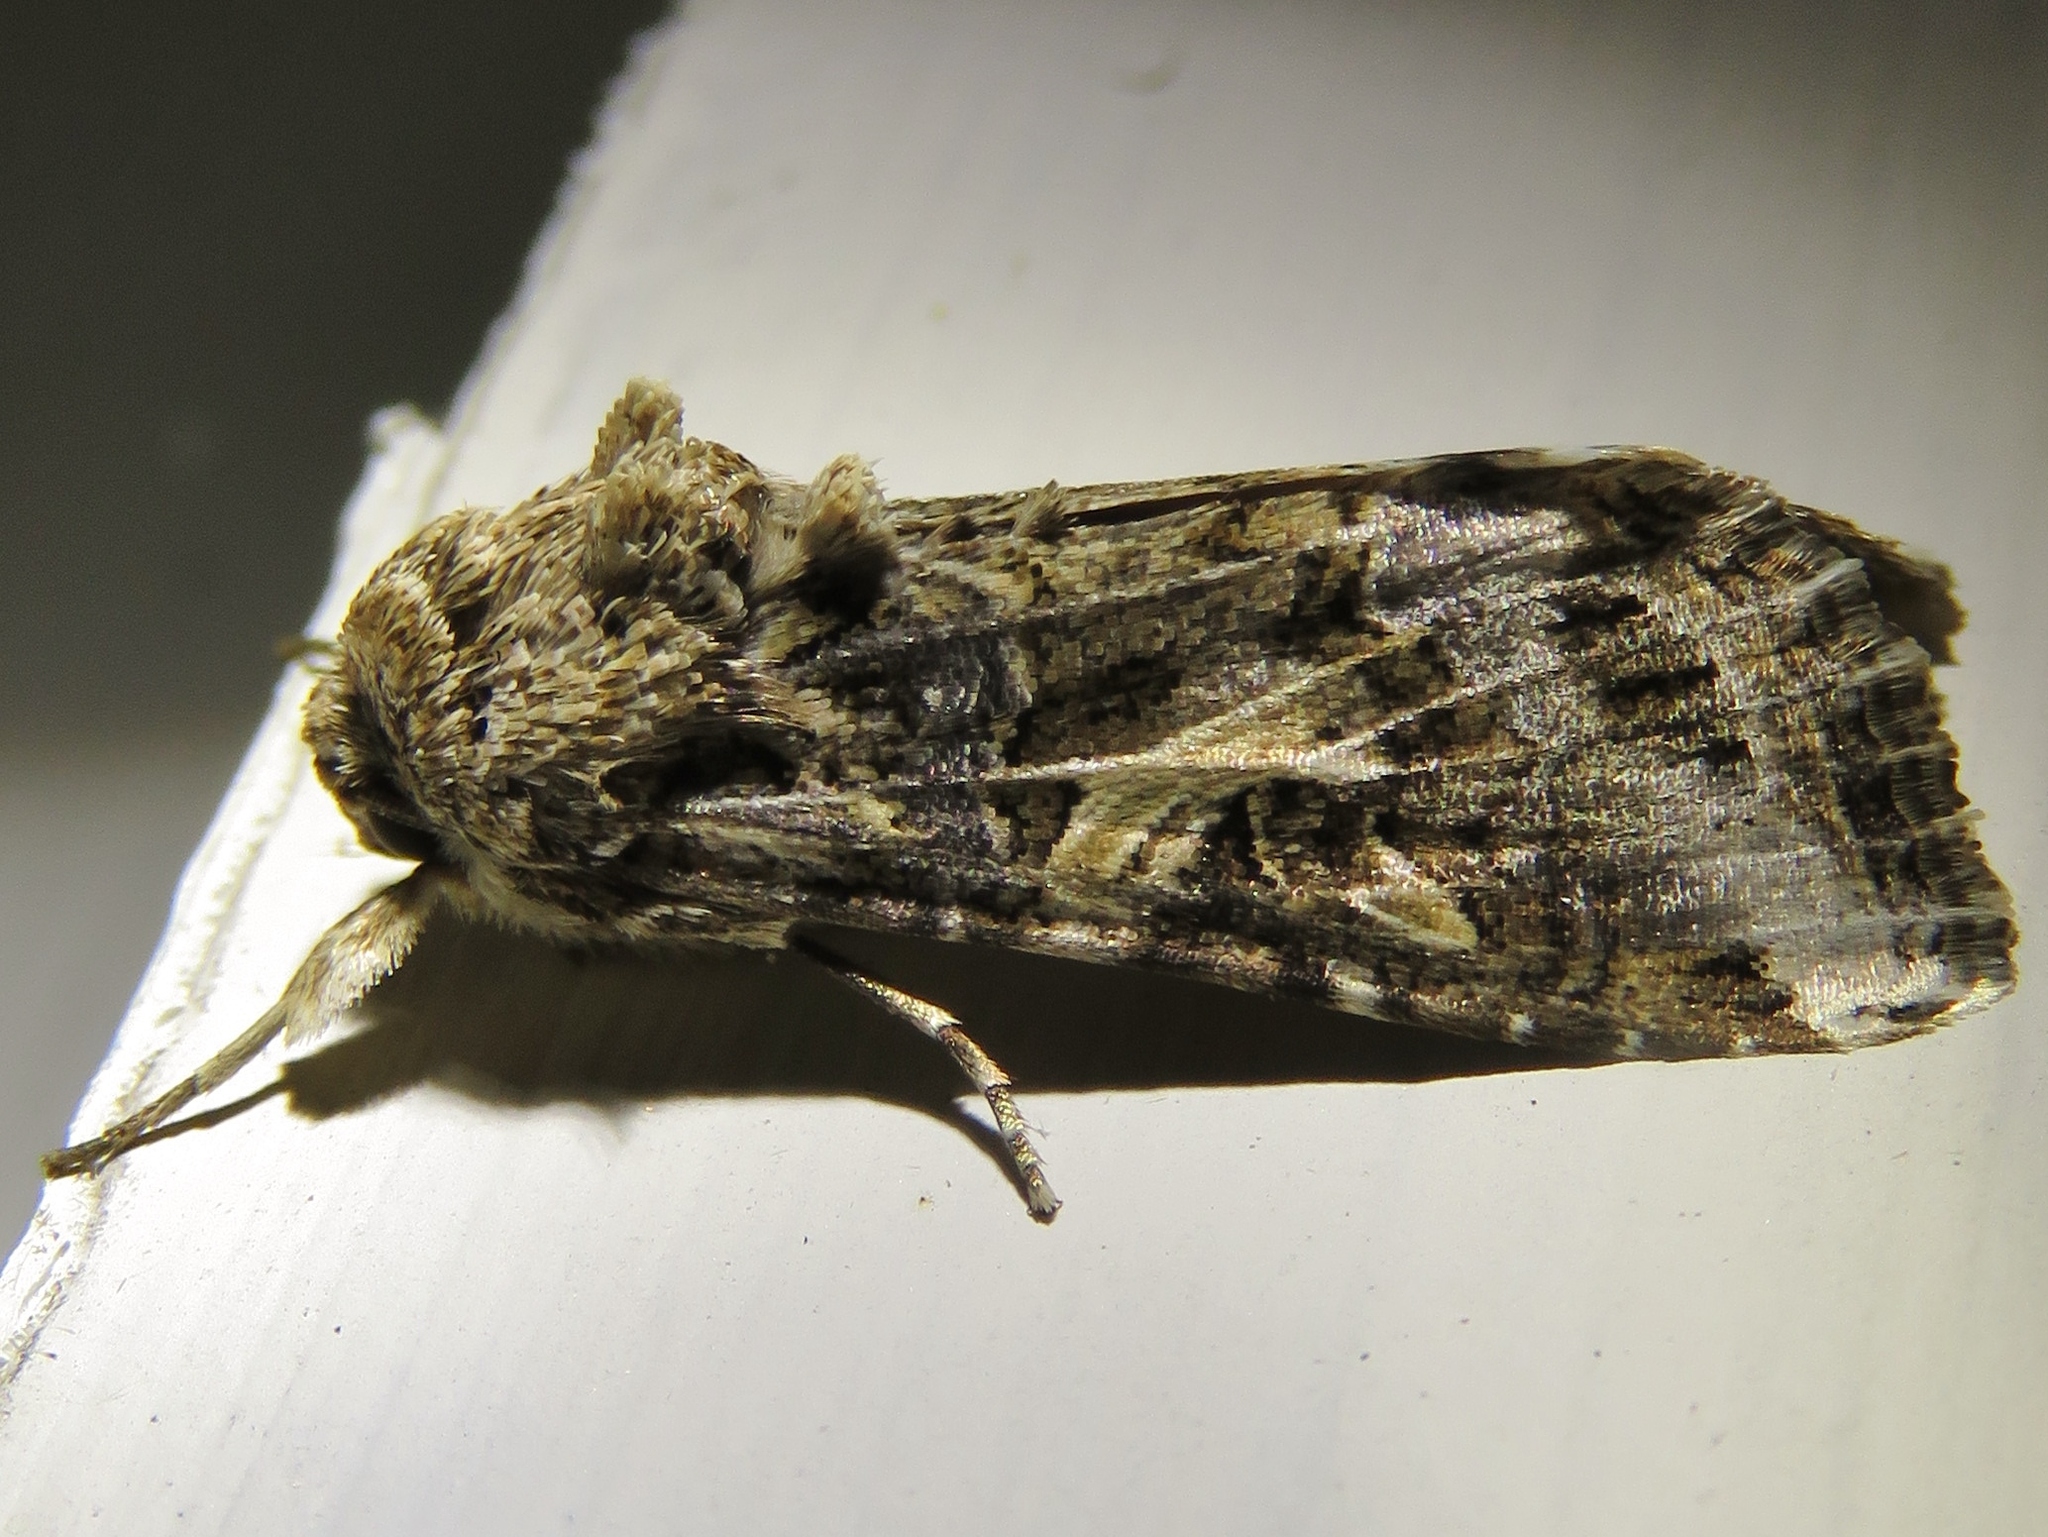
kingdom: Animalia
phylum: Arthropoda
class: Insecta
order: Lepidoptera
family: Noctuidae
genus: Spodoptera
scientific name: Spodoptera ornithogalli
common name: Yellow-striped armyworm
